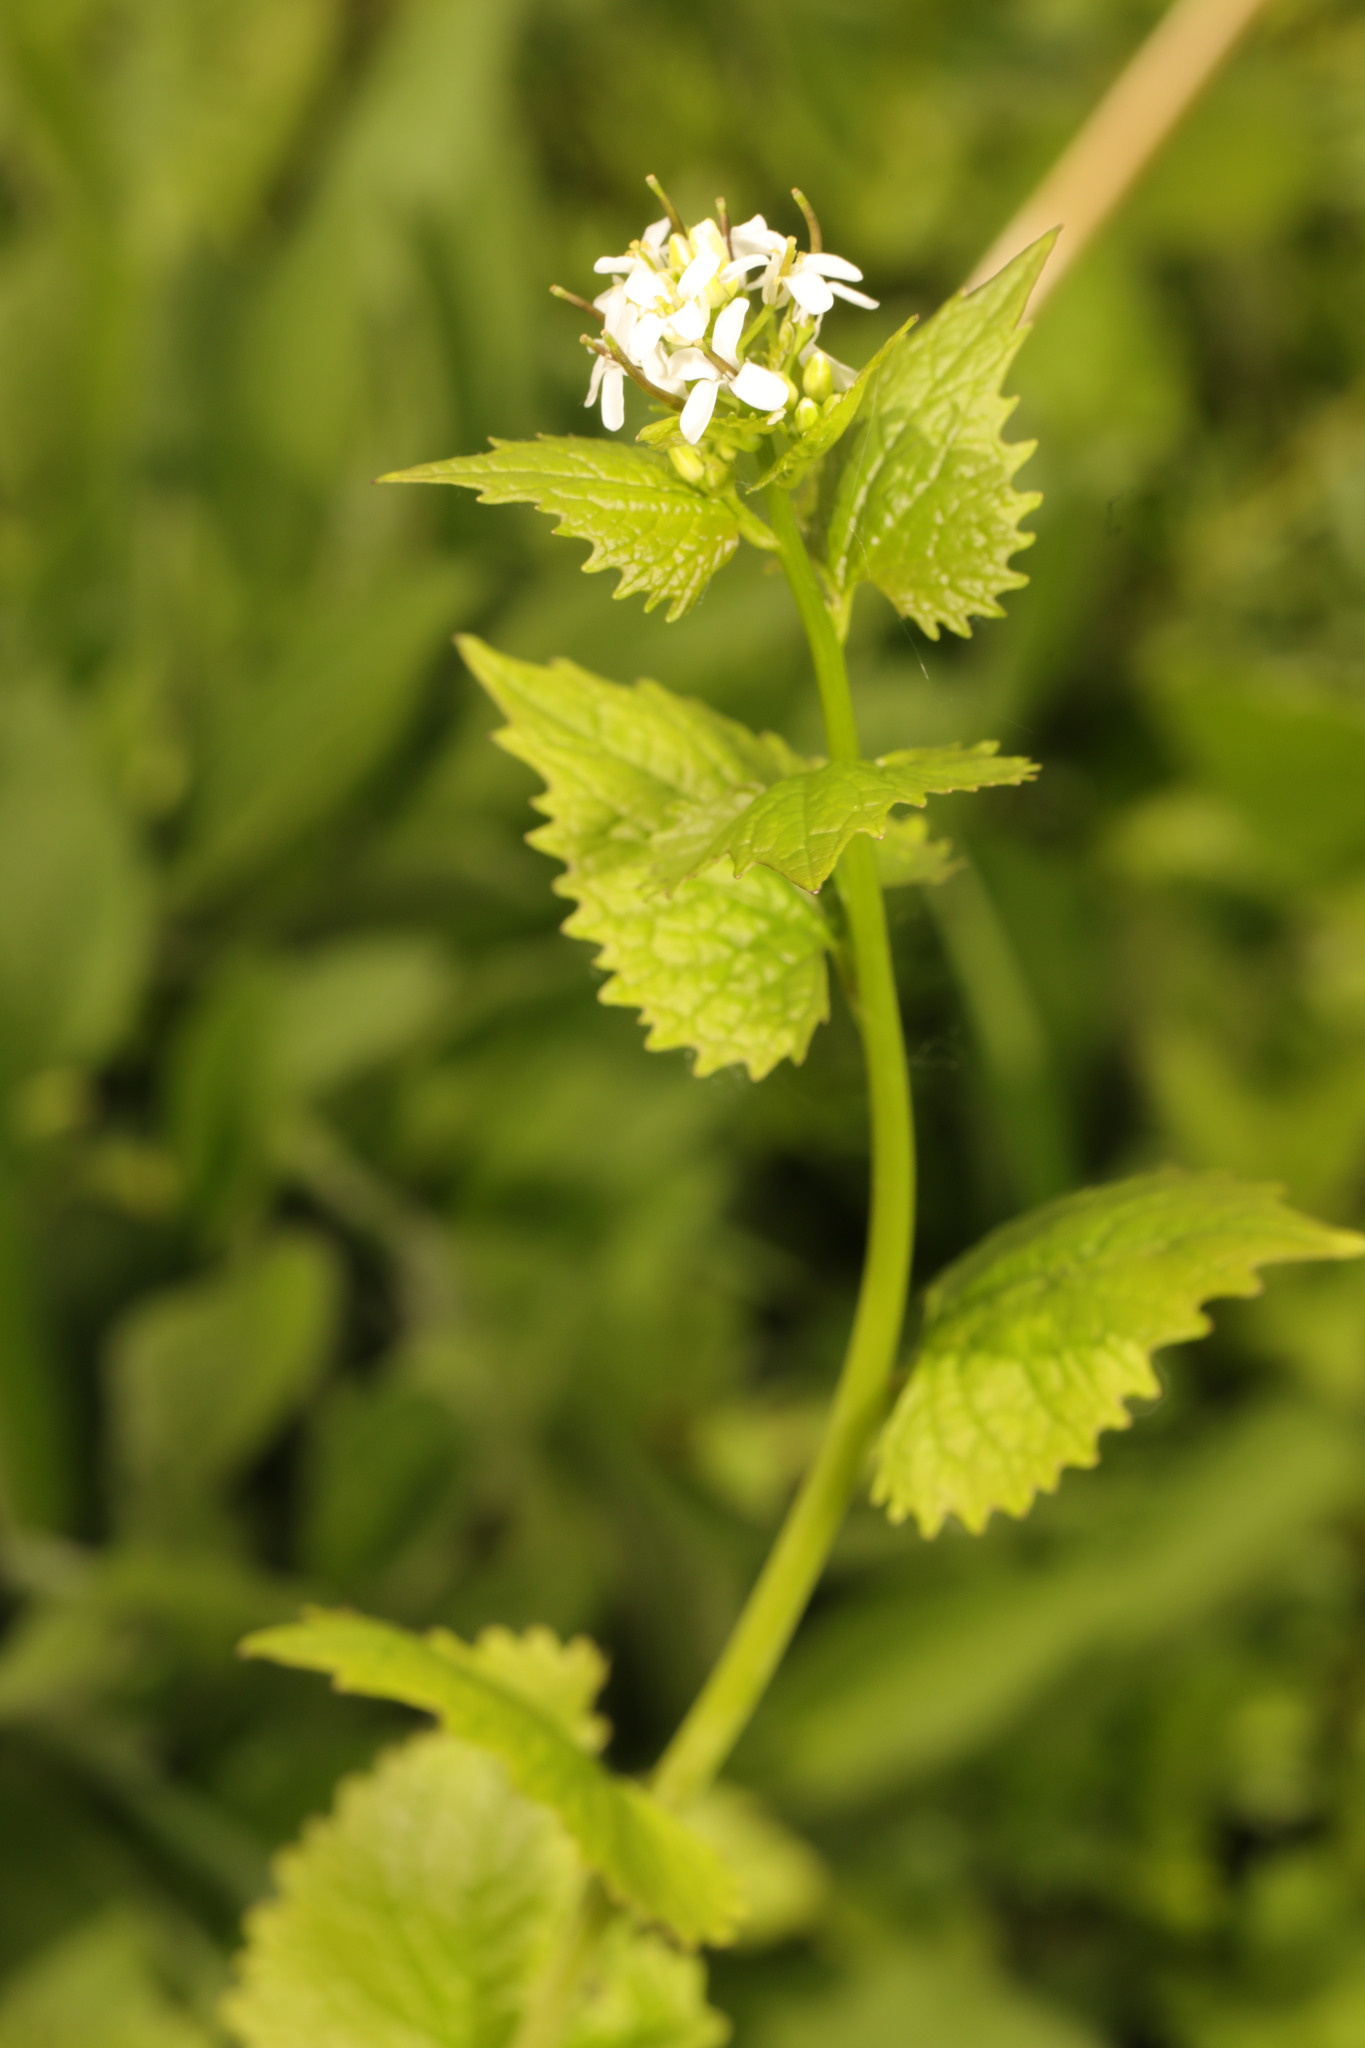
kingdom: Plantae
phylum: Tracheophyta
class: Magnoliopsida
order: Brassicales
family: Brassicaceae
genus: Alliaria
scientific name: Alliaria petiolata
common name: Garlic mustard
